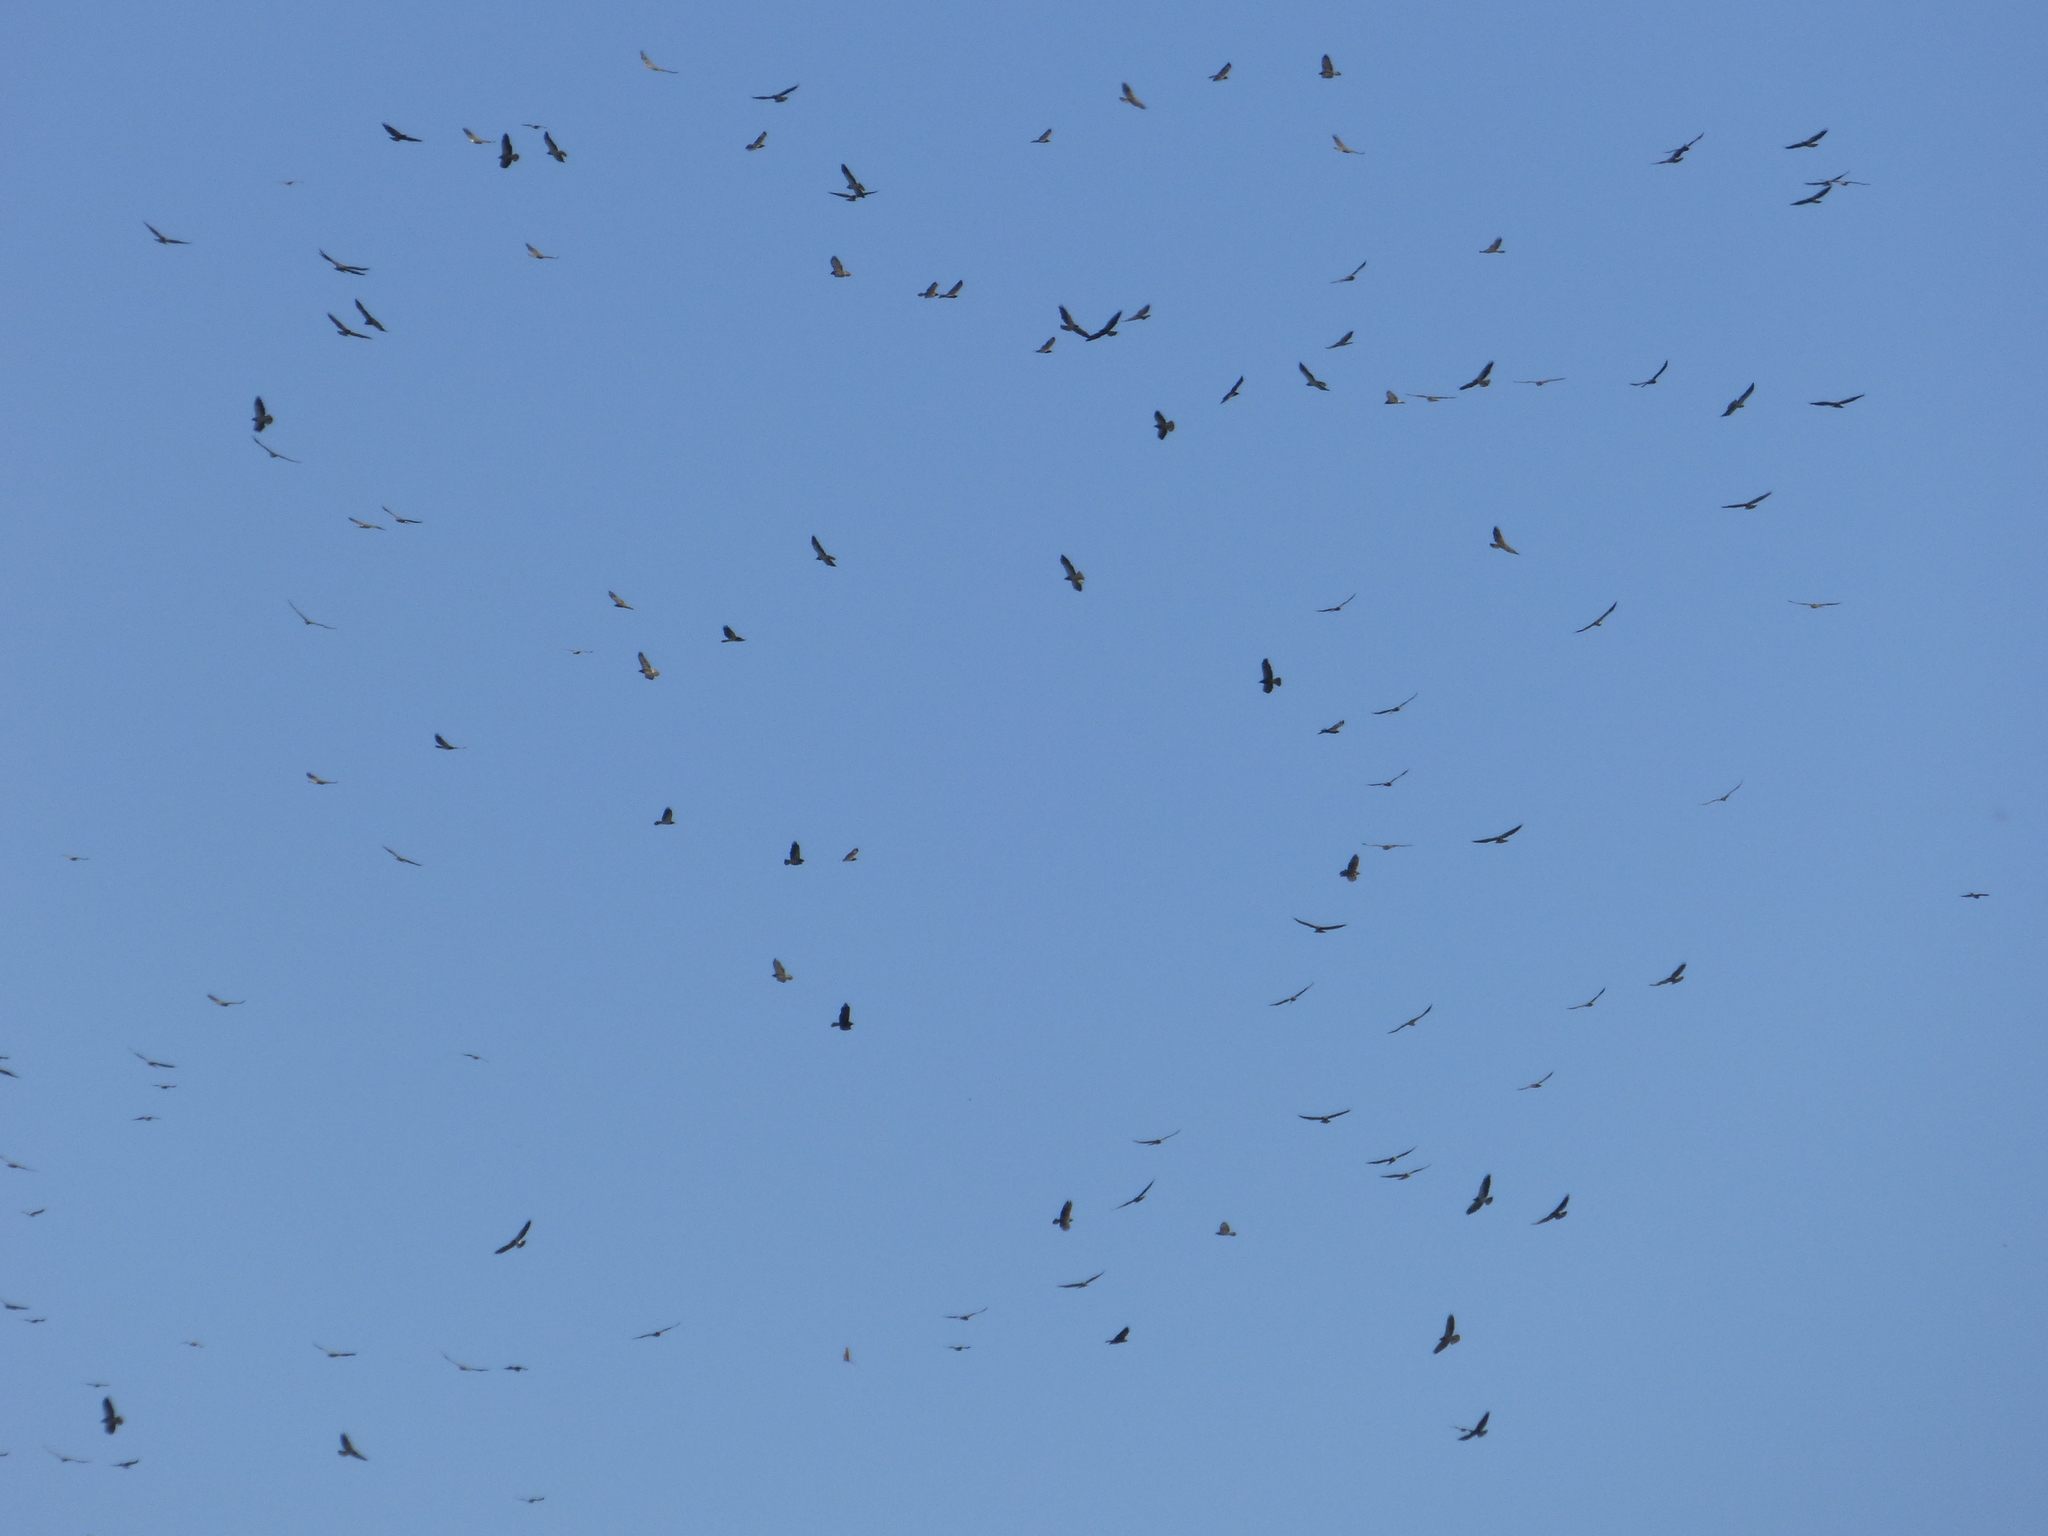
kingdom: Animalia
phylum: Chordata
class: Aves
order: Accipitriformes
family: Accipitridae
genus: Buteo
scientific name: Buteo swainsoni
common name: Swainson's hawk
